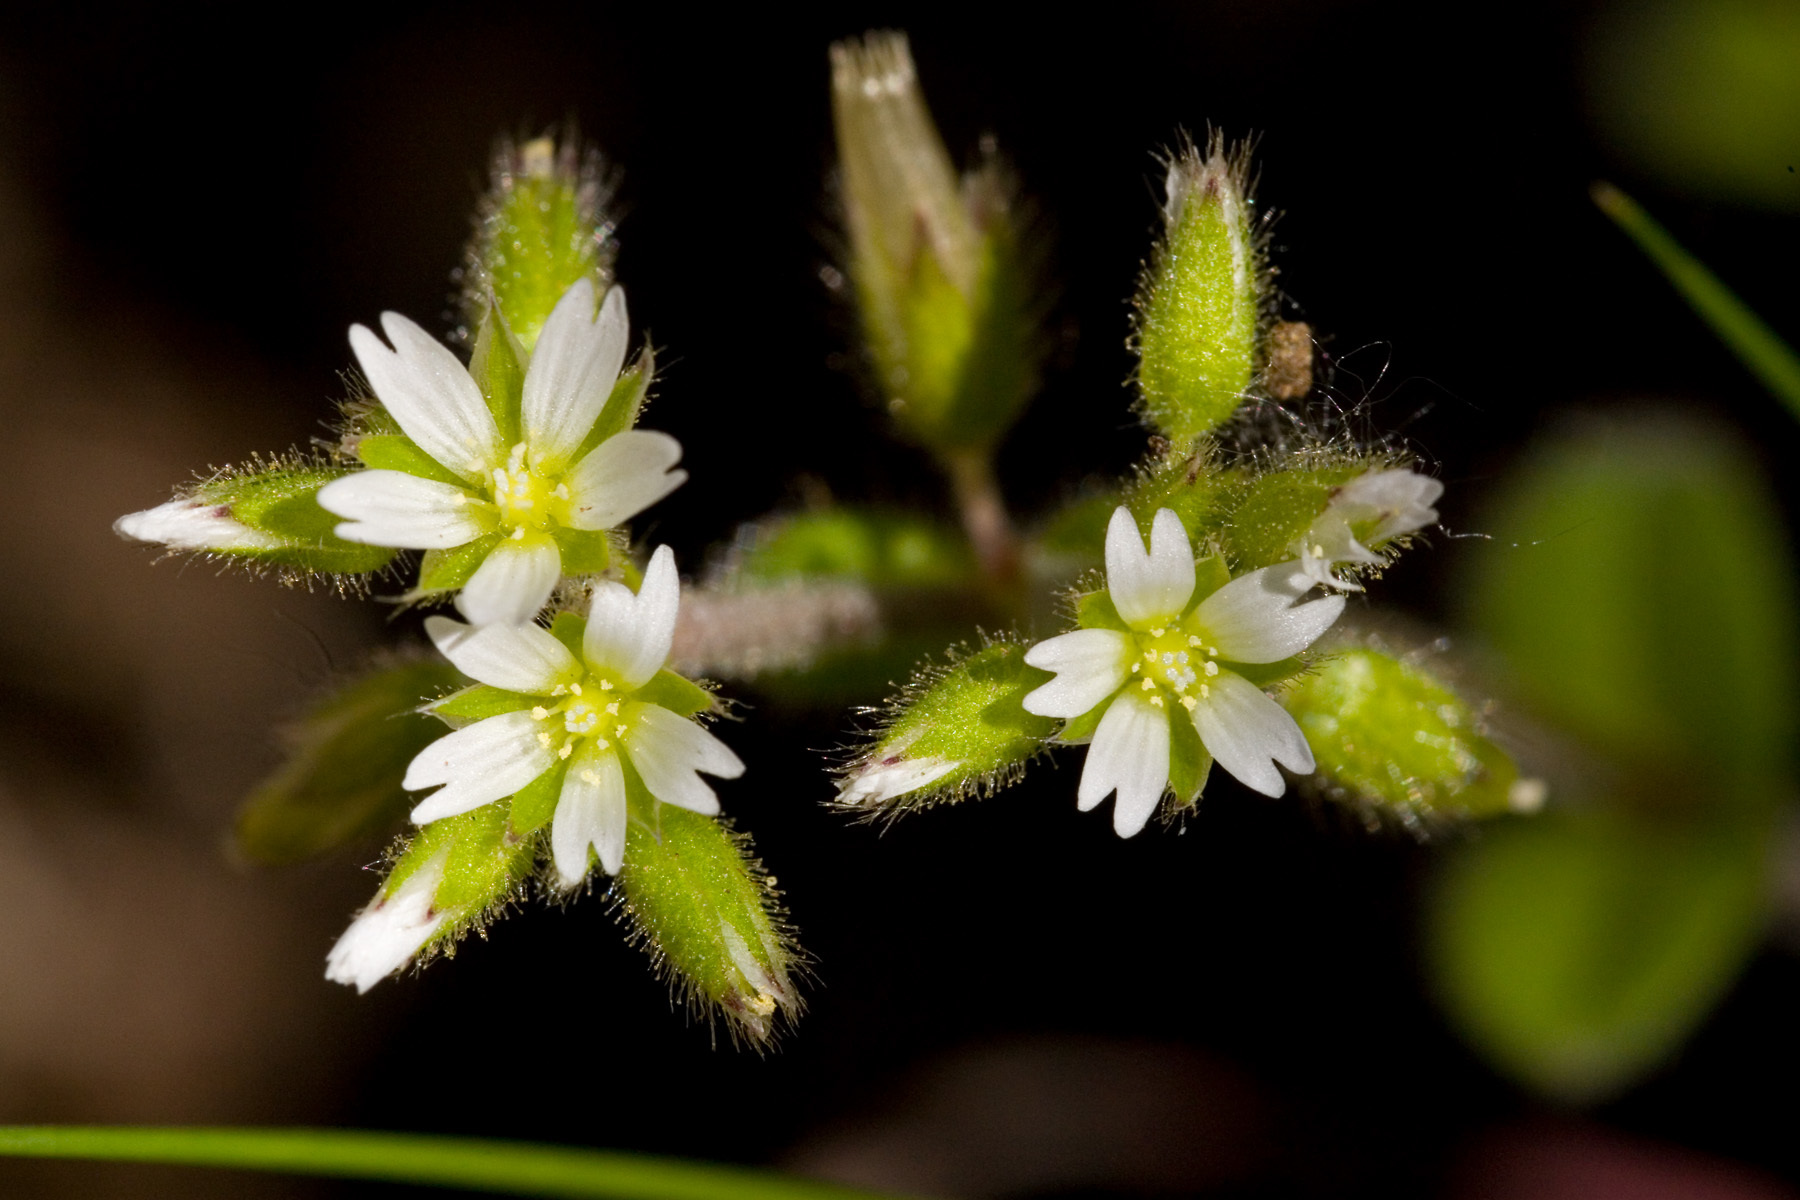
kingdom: Plantae
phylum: Tracheophyta
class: Magnoliopsida
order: Caryophyllales
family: Caryophyllaceae
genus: Cerastium
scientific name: Cerastium glomeratum
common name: Sticky chickweed
